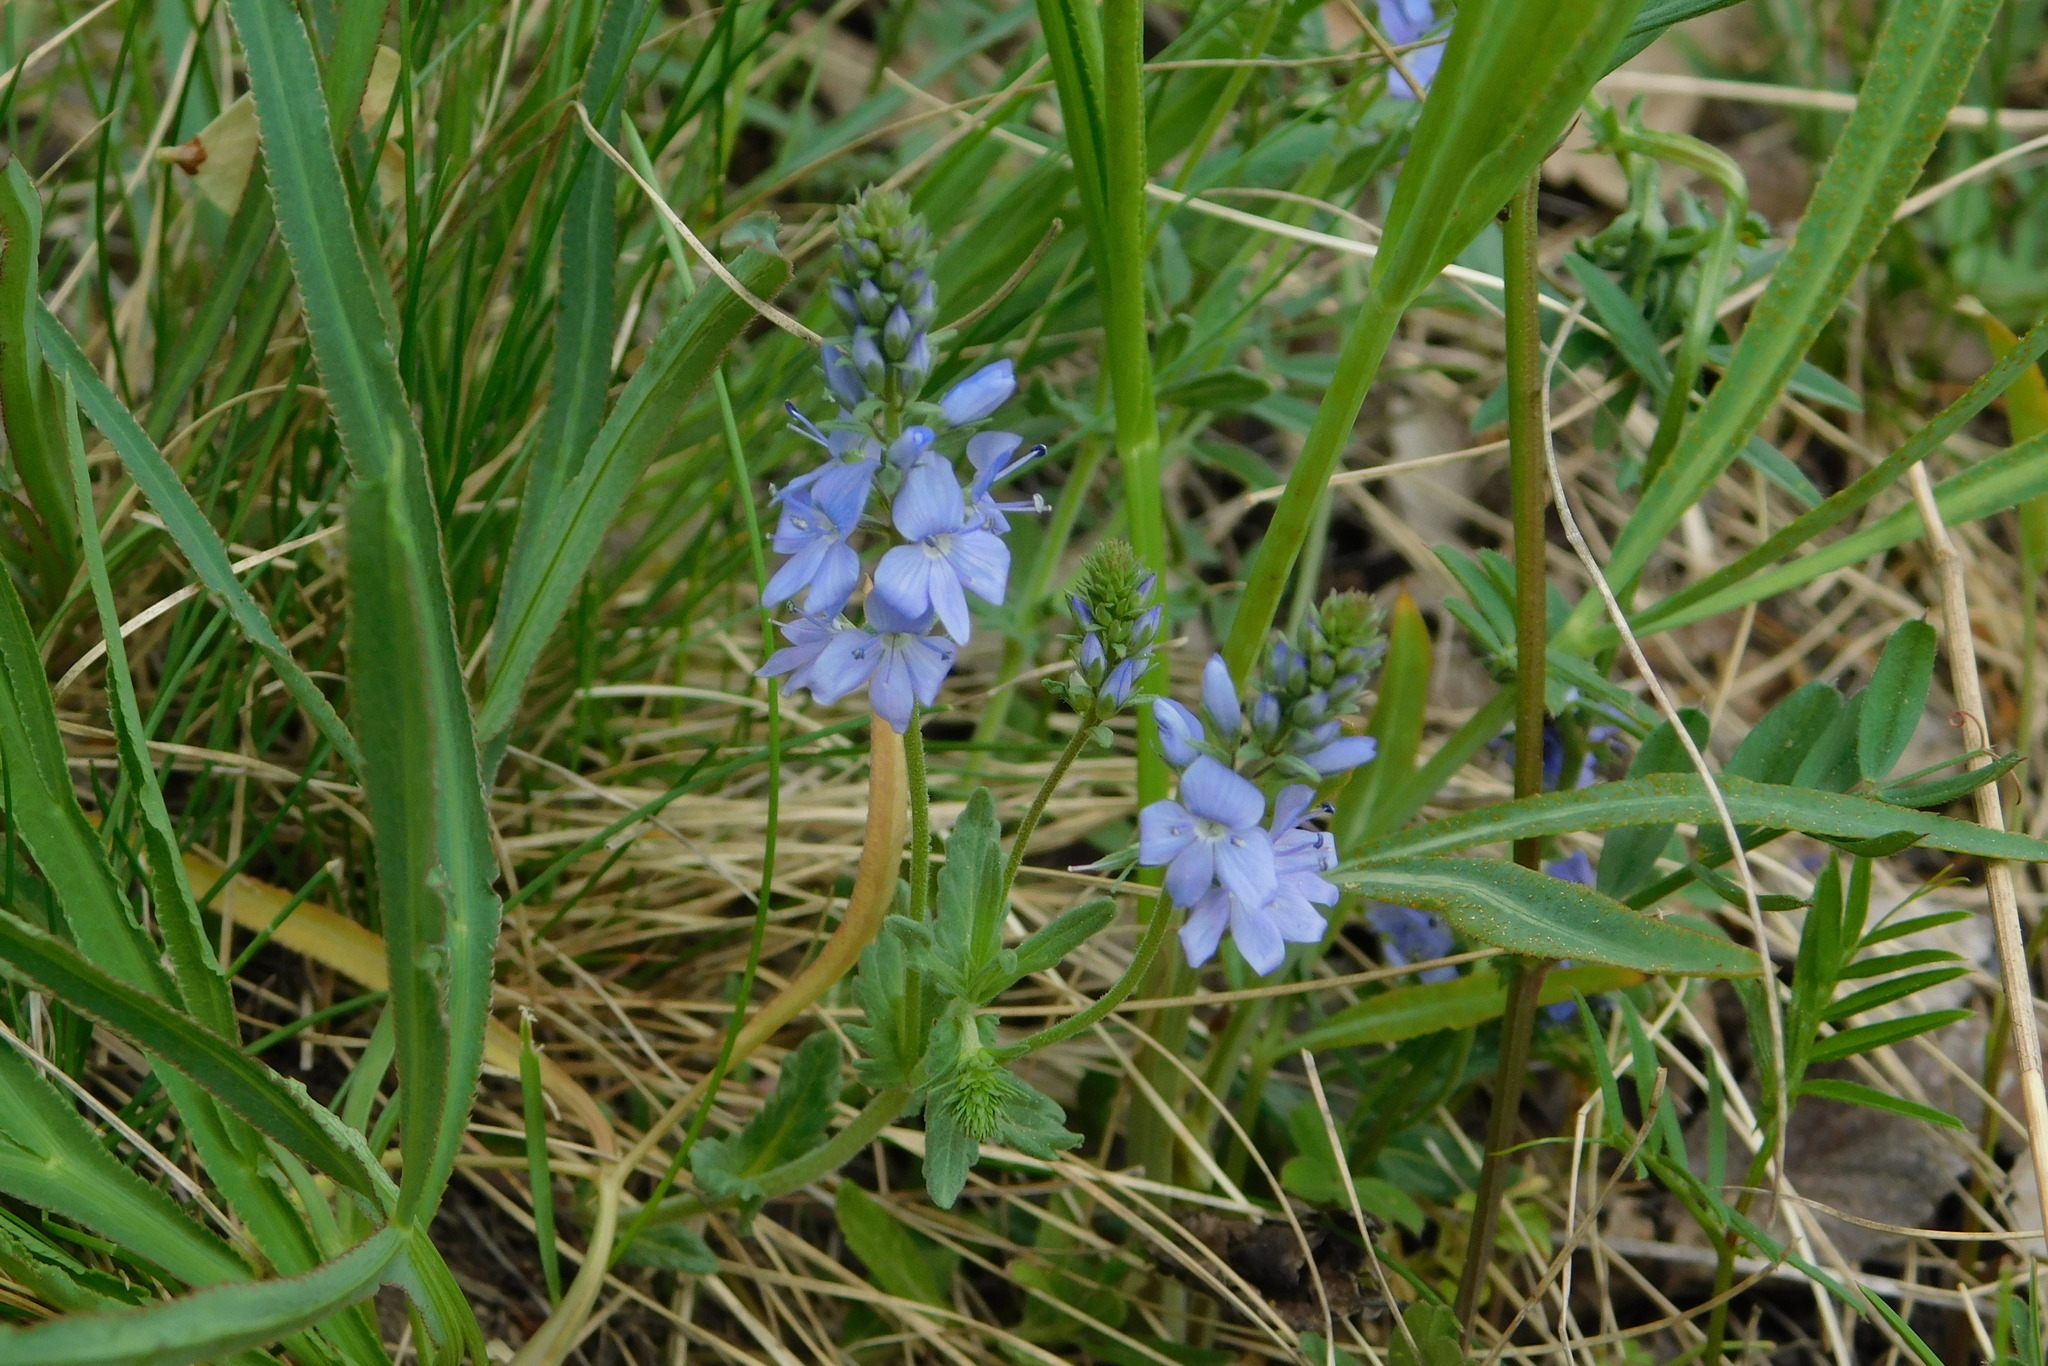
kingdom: Plantae
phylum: Tracheophyta
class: Magnoliopsida
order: Lamiales
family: Plantaginaceae
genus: Veronica
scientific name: Veronica prostrata
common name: Prostrate speedwell
